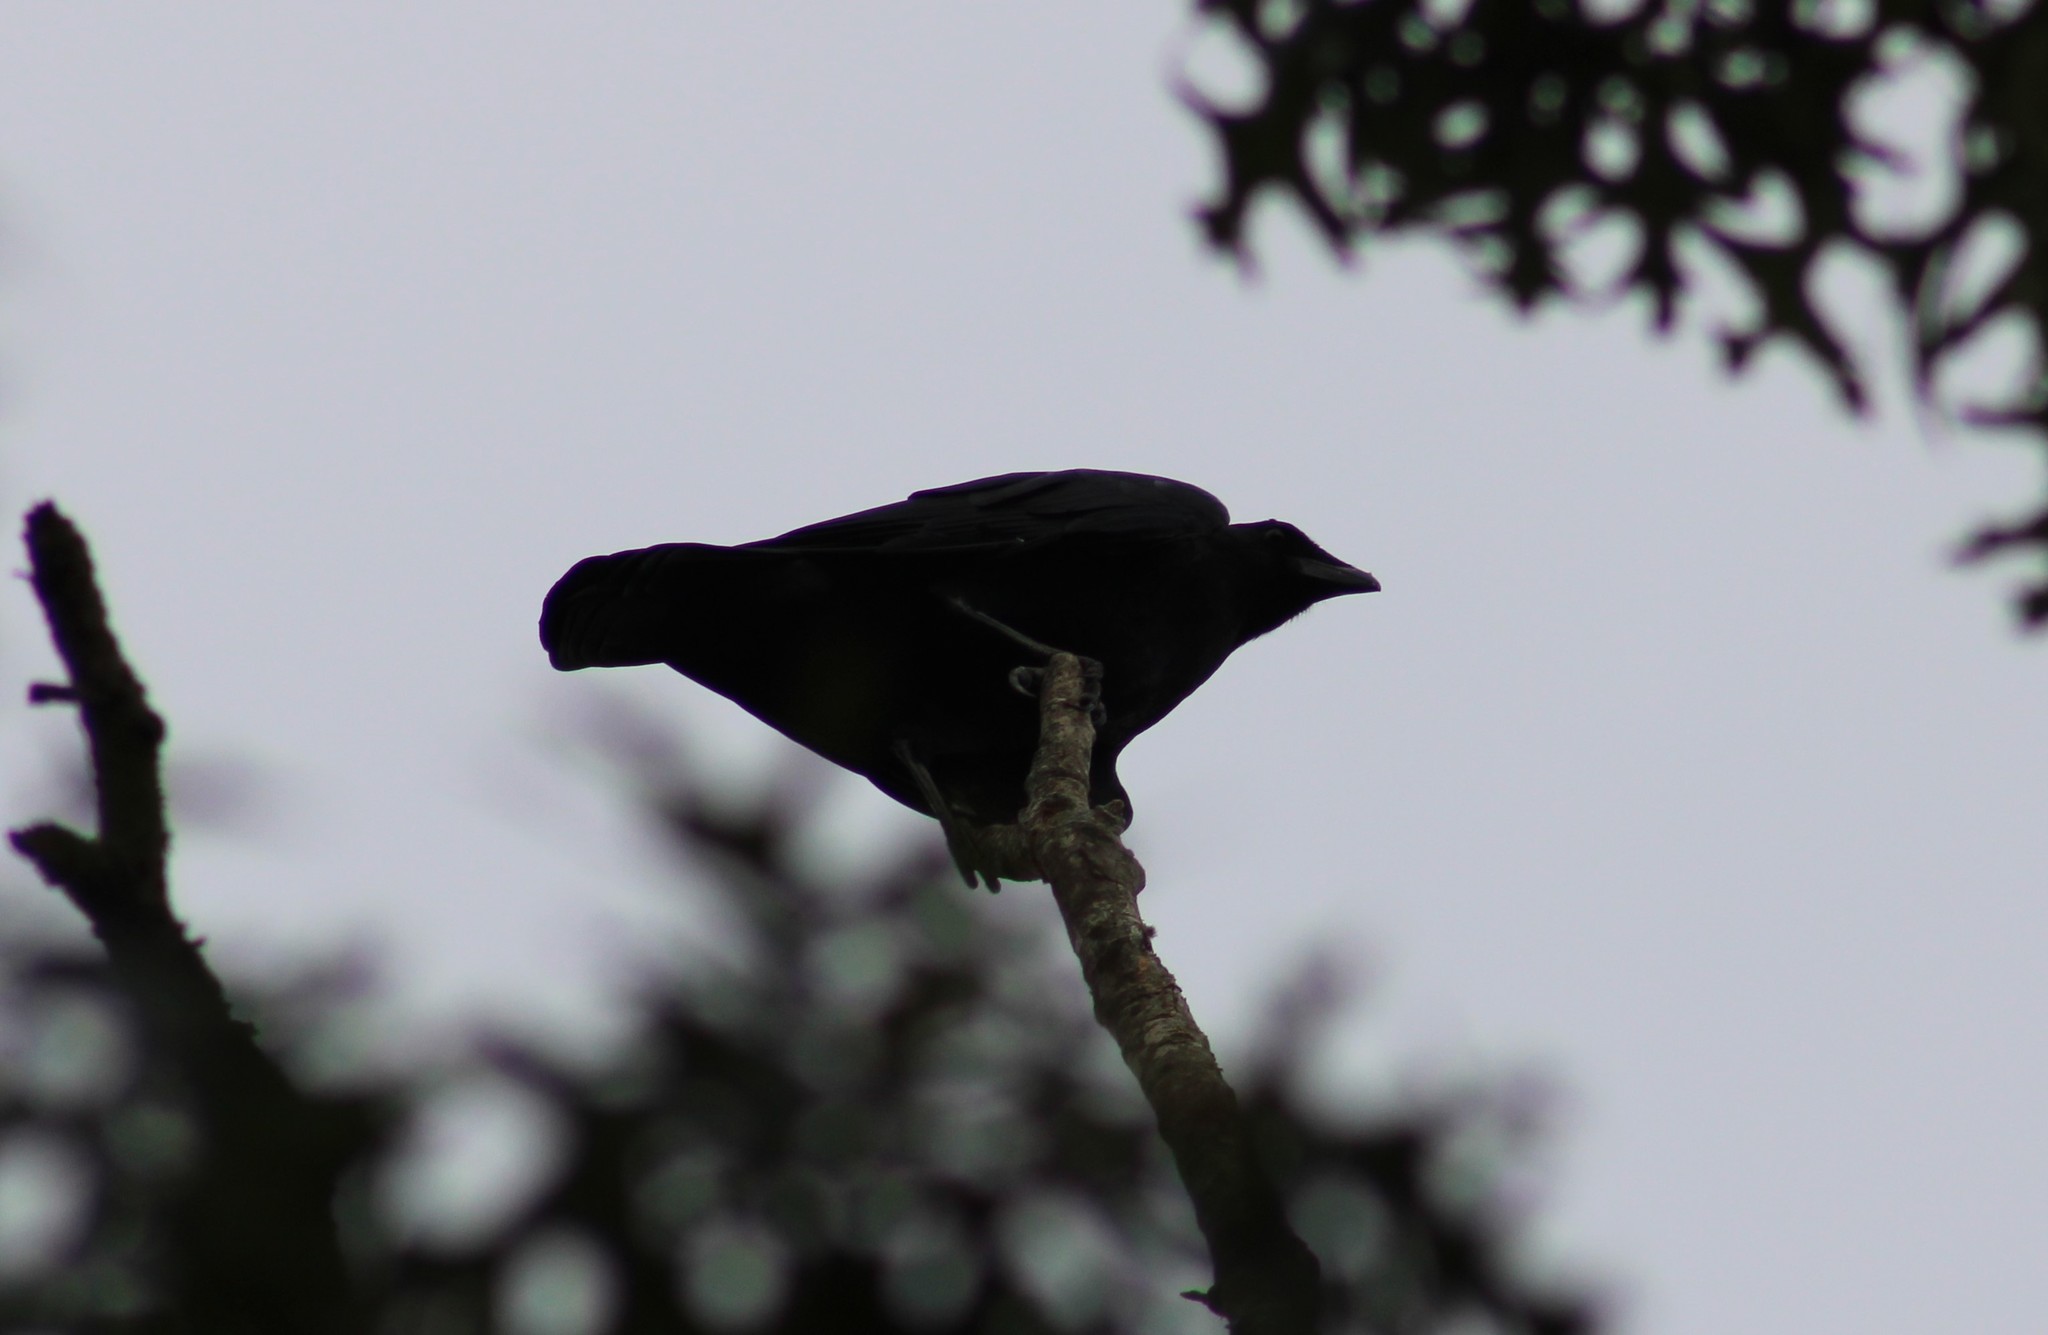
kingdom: Animalia
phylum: Chordata
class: Aves
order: Passeriformes
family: Corvidae
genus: Corvus
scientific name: Corvus corax
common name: Common raven
